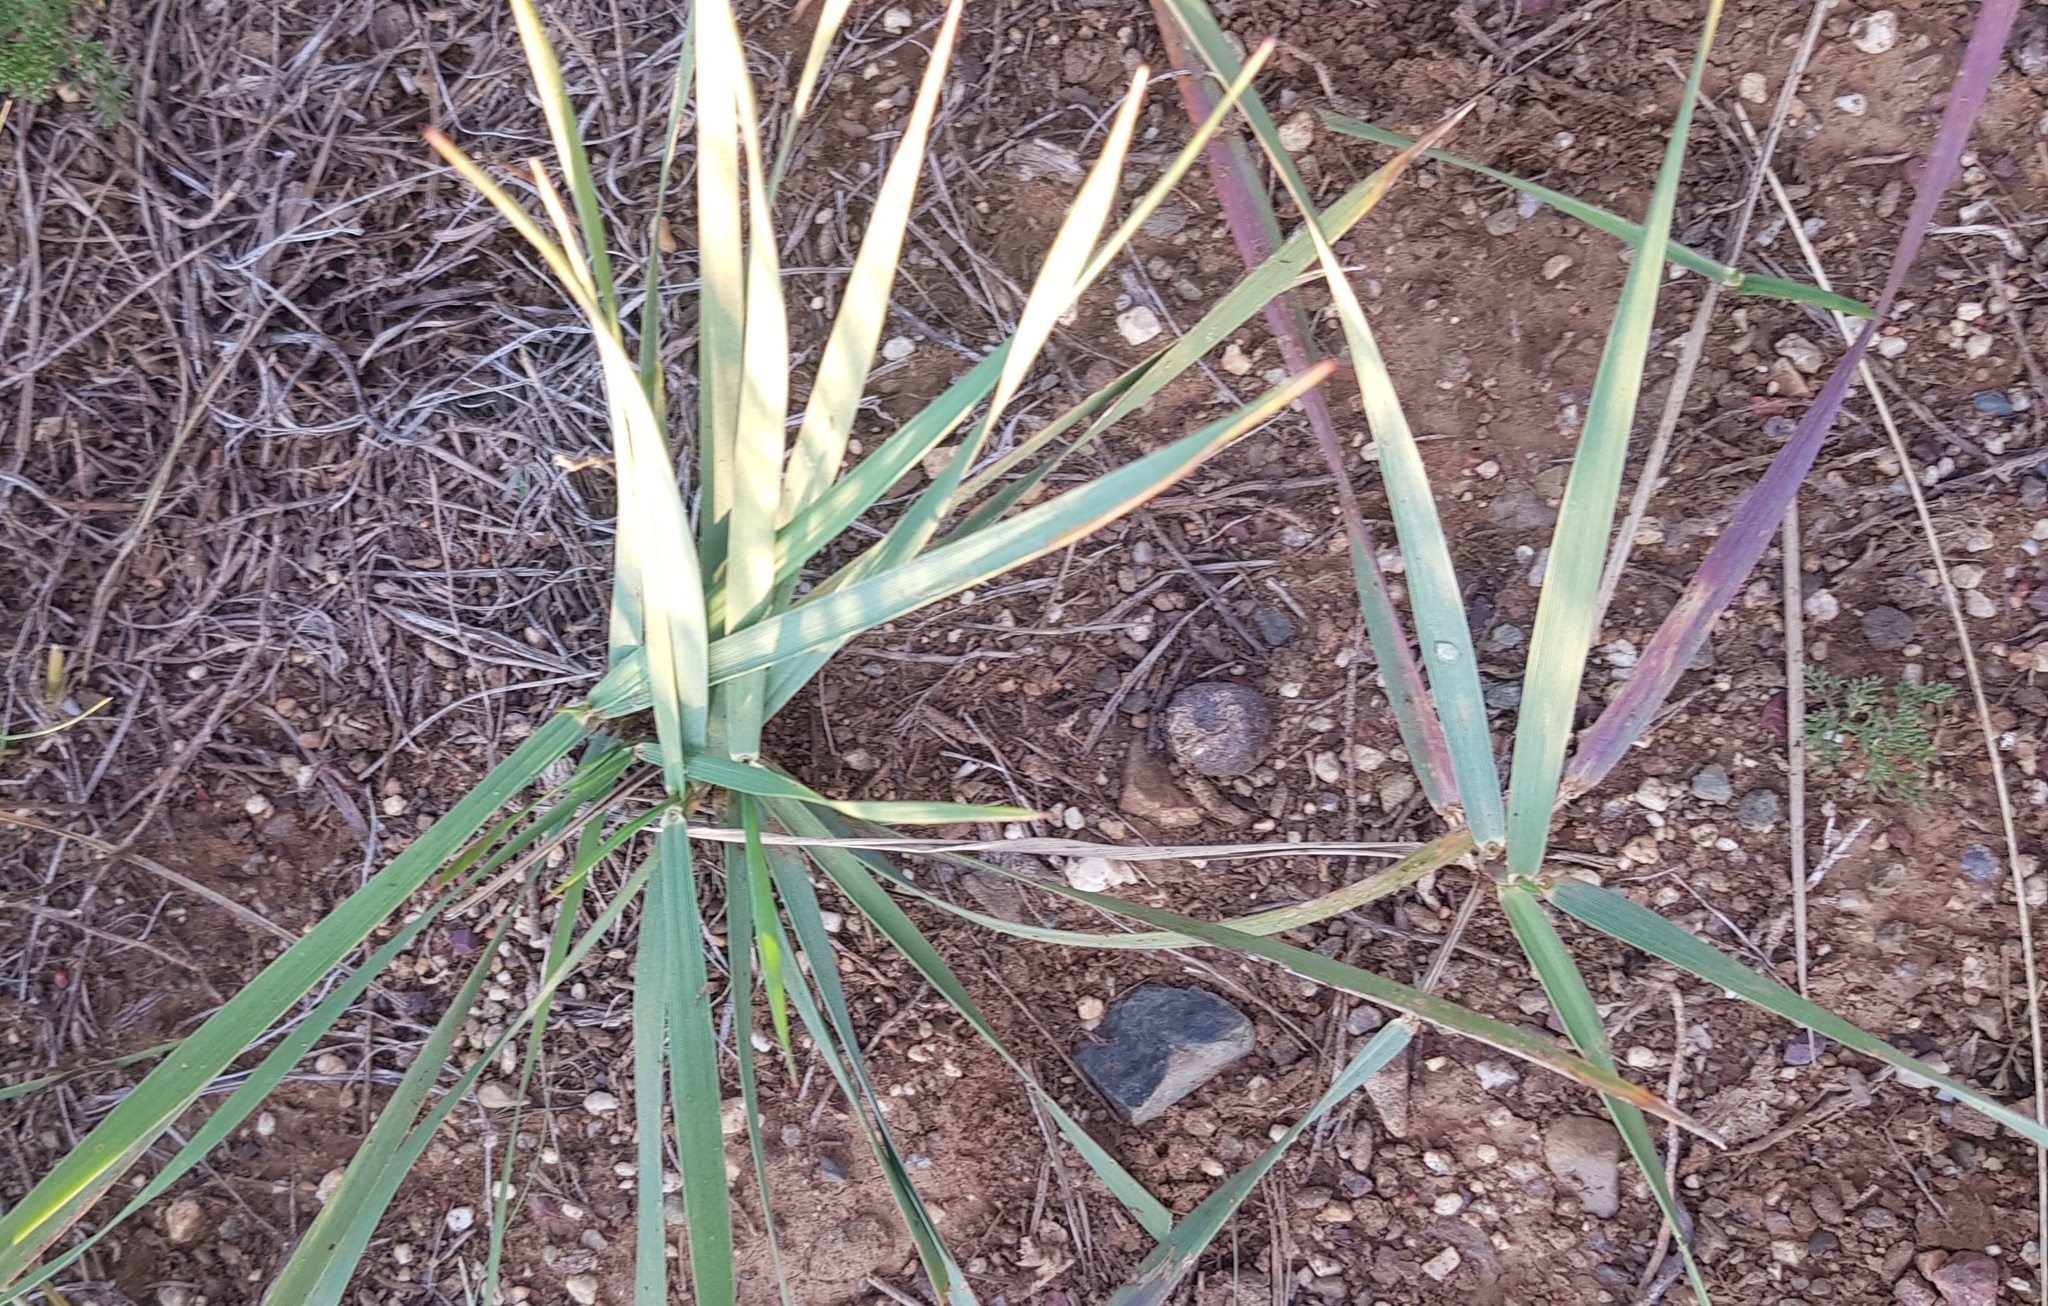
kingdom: Plantae
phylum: Tracheophyta
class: Liliopsida
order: Poales
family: Poaceae
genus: Leymus
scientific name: Leymus chinensis
